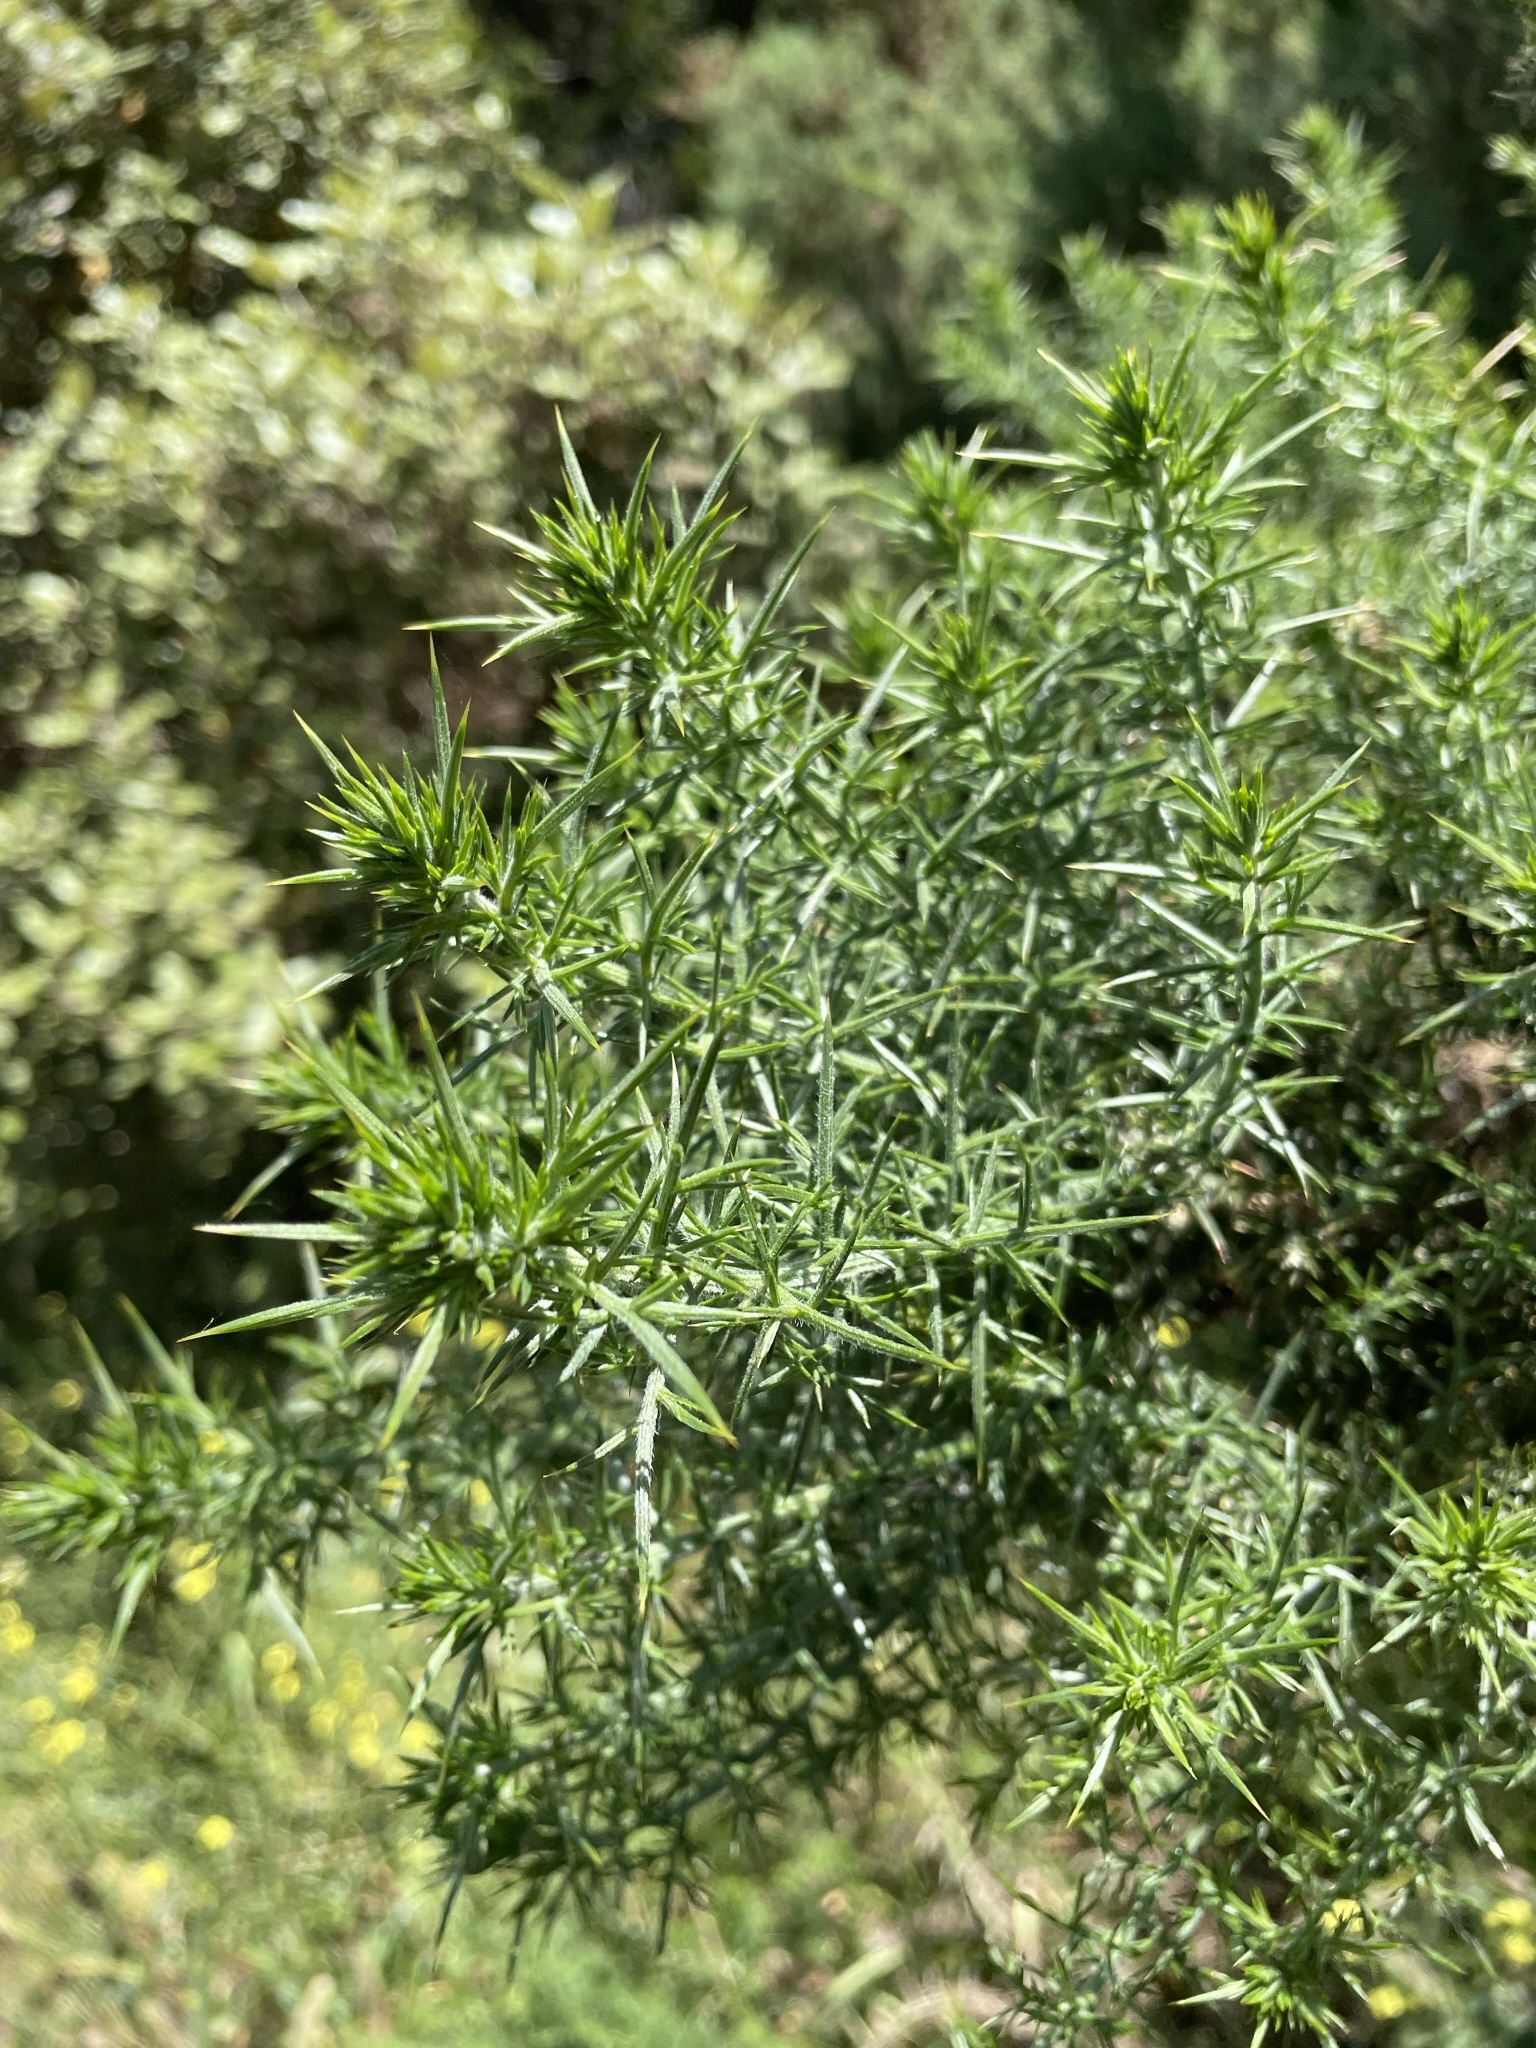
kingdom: Plantae
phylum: Tracheophyta
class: Magnoliopsida
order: Fabales
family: Fabaceae
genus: Ulex
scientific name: Ulex europaeus
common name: Common gorse
